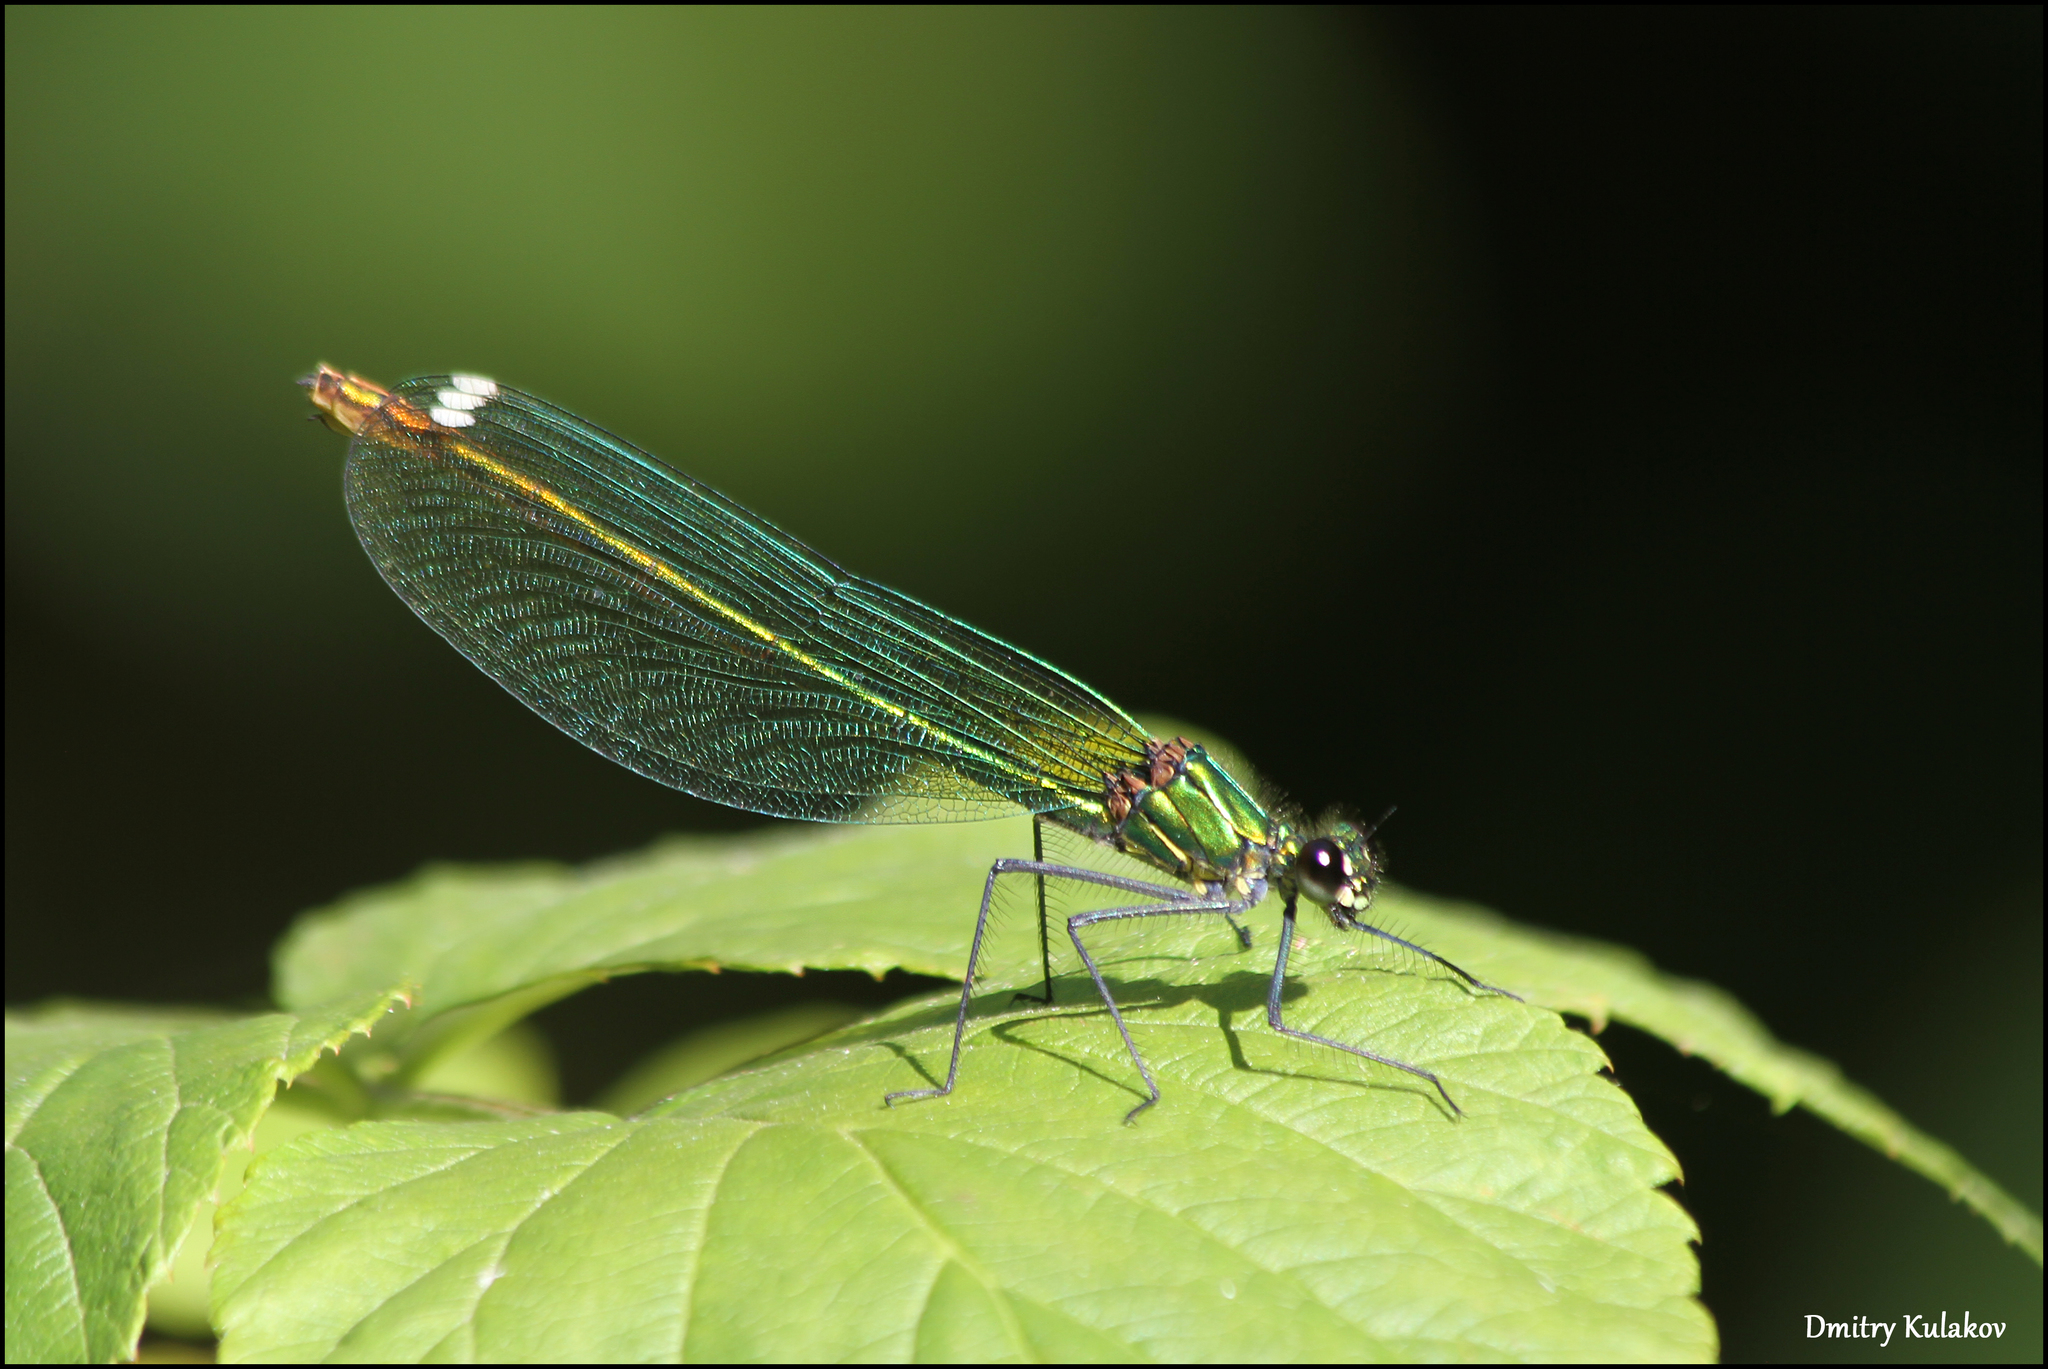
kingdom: Animalia
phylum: Arthropoda
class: Insecta
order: Odonata
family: Calopterygidae
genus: Calopteryx
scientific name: Calopteryx splendens
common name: Banded demoiselle
